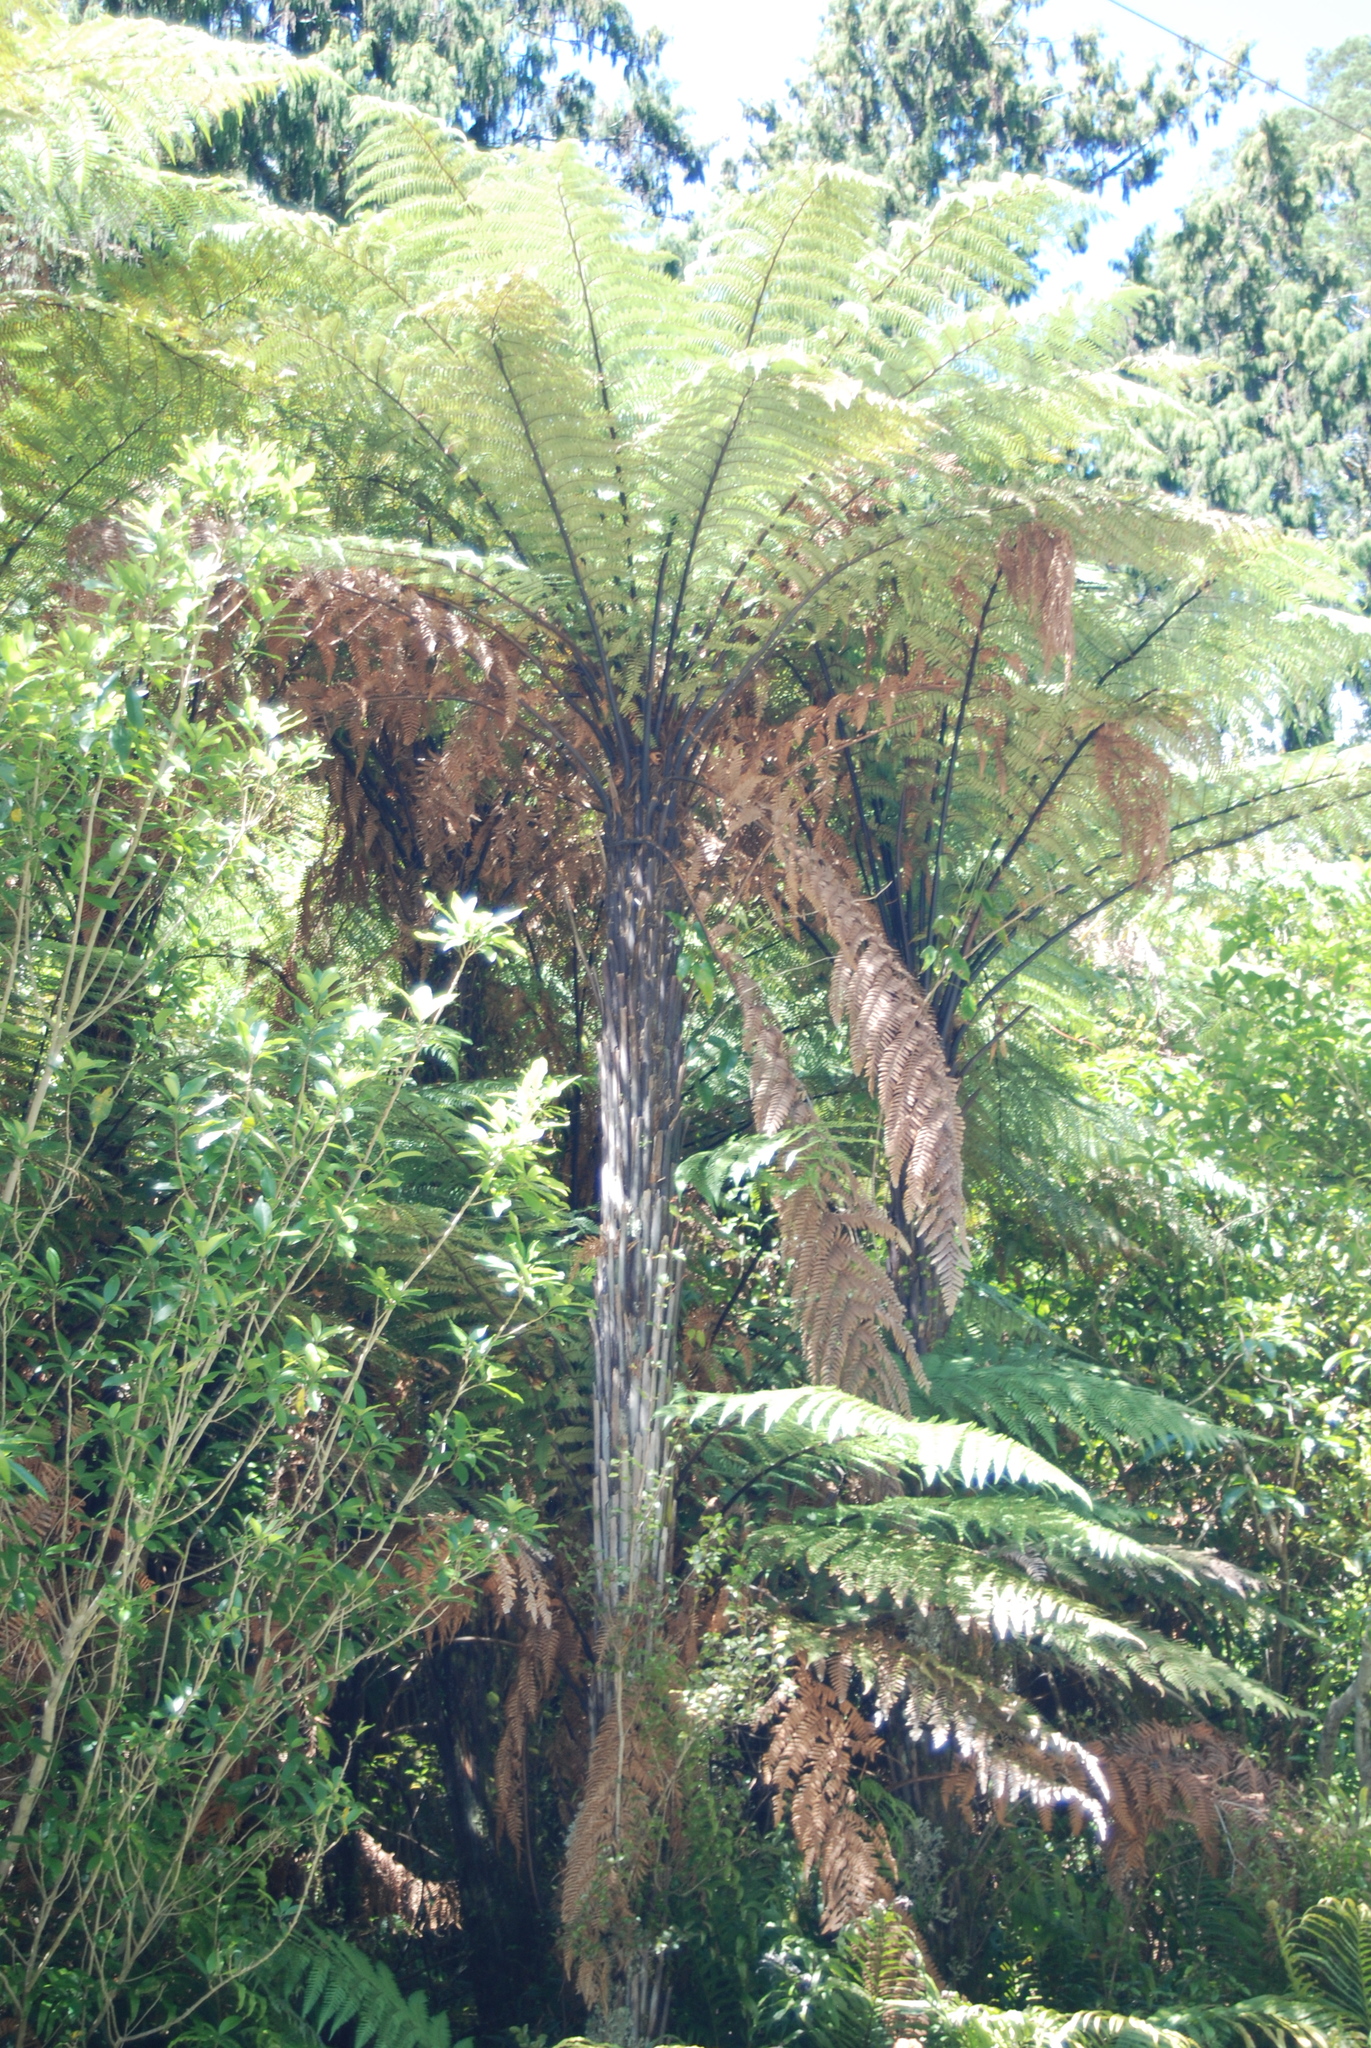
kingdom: Plantae
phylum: Tracheophyta
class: Polypodiopsida
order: Cyatheales
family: Dicksoniaceae
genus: Dicksonia
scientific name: Dicksonia squarrosa
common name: Hard treefern
